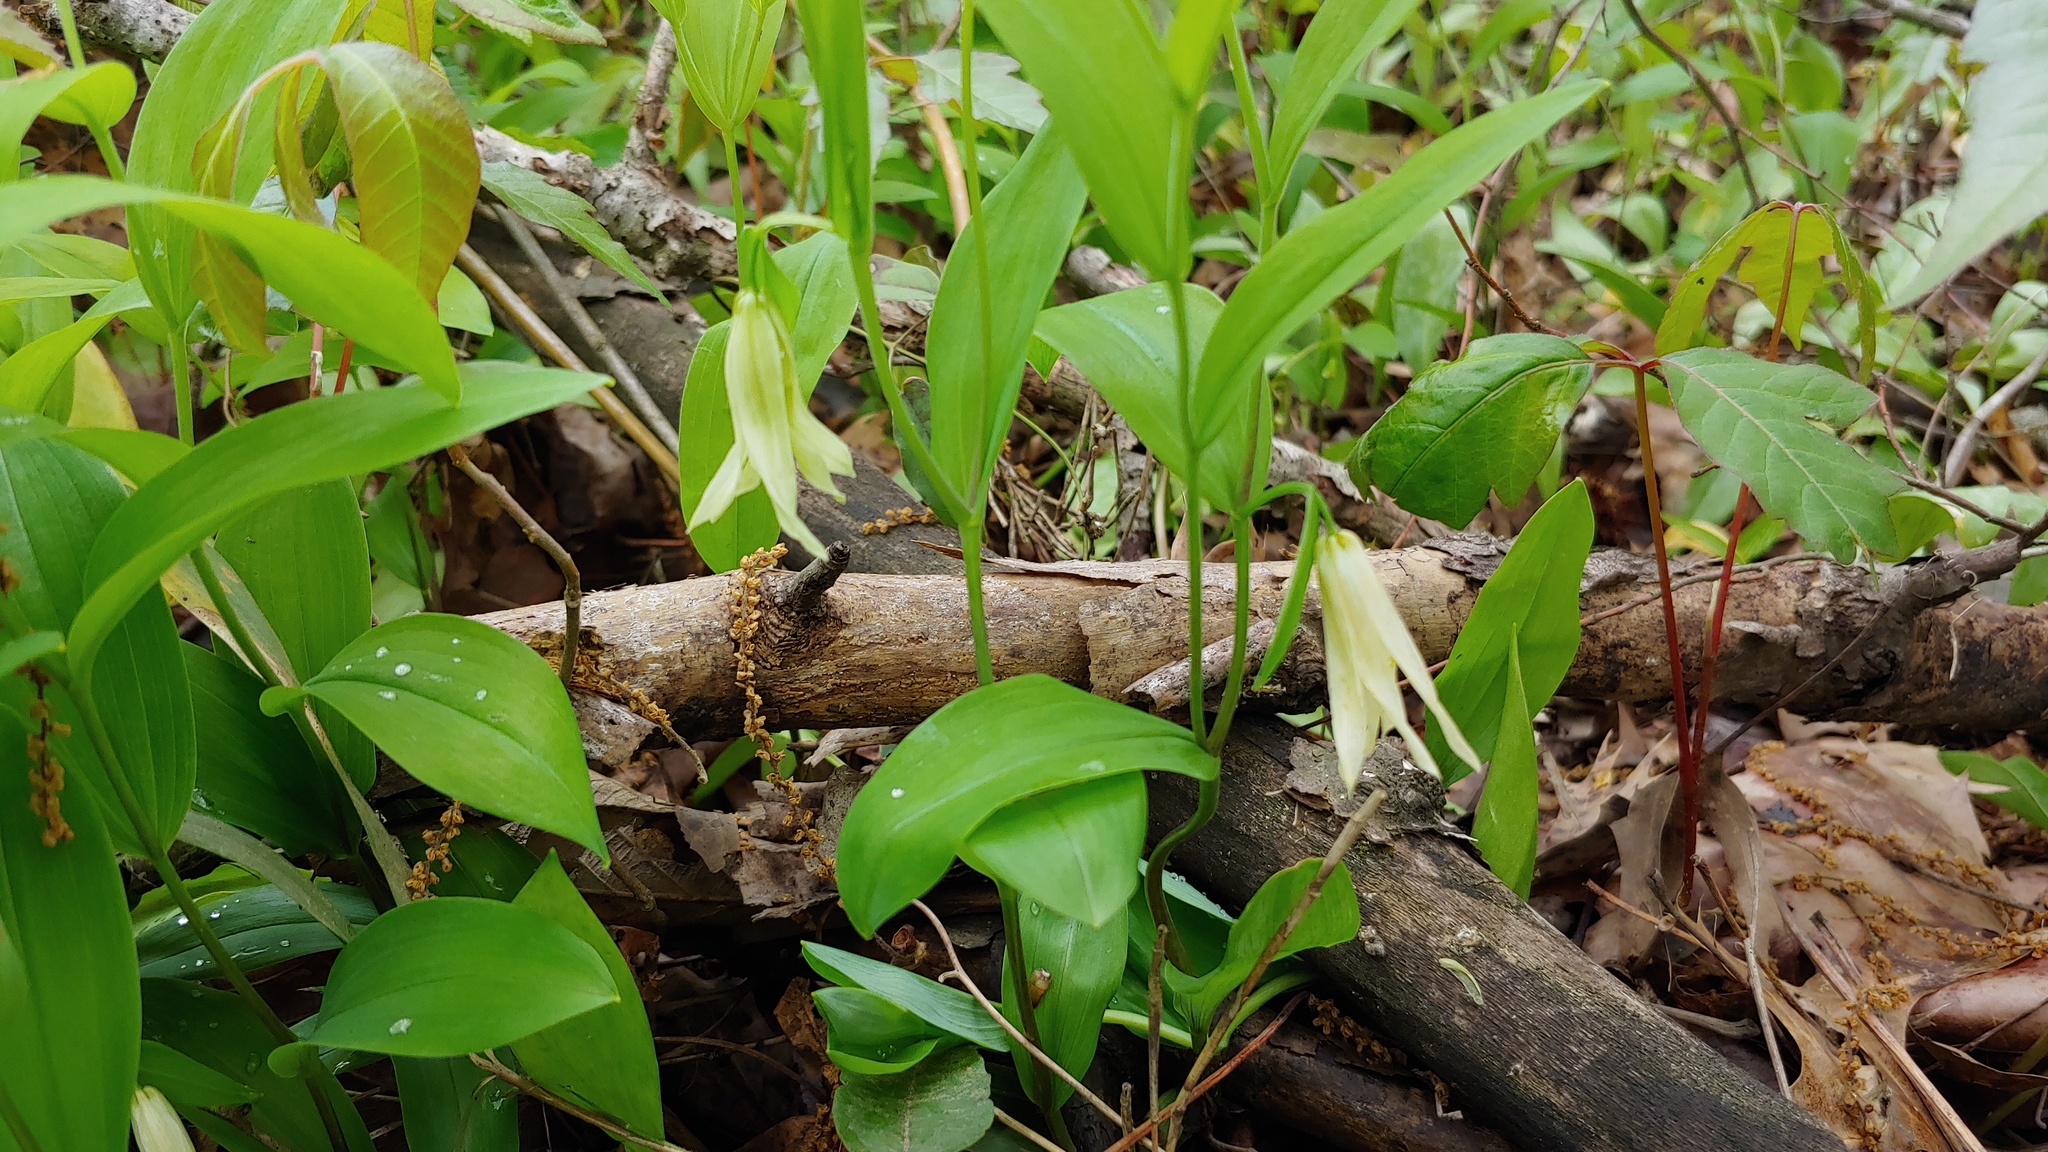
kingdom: Plantae
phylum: Tracheophyta
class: Liliopsida
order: Liliales
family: Colchicaceae
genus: Uvularia
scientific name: Uvularia floridana
